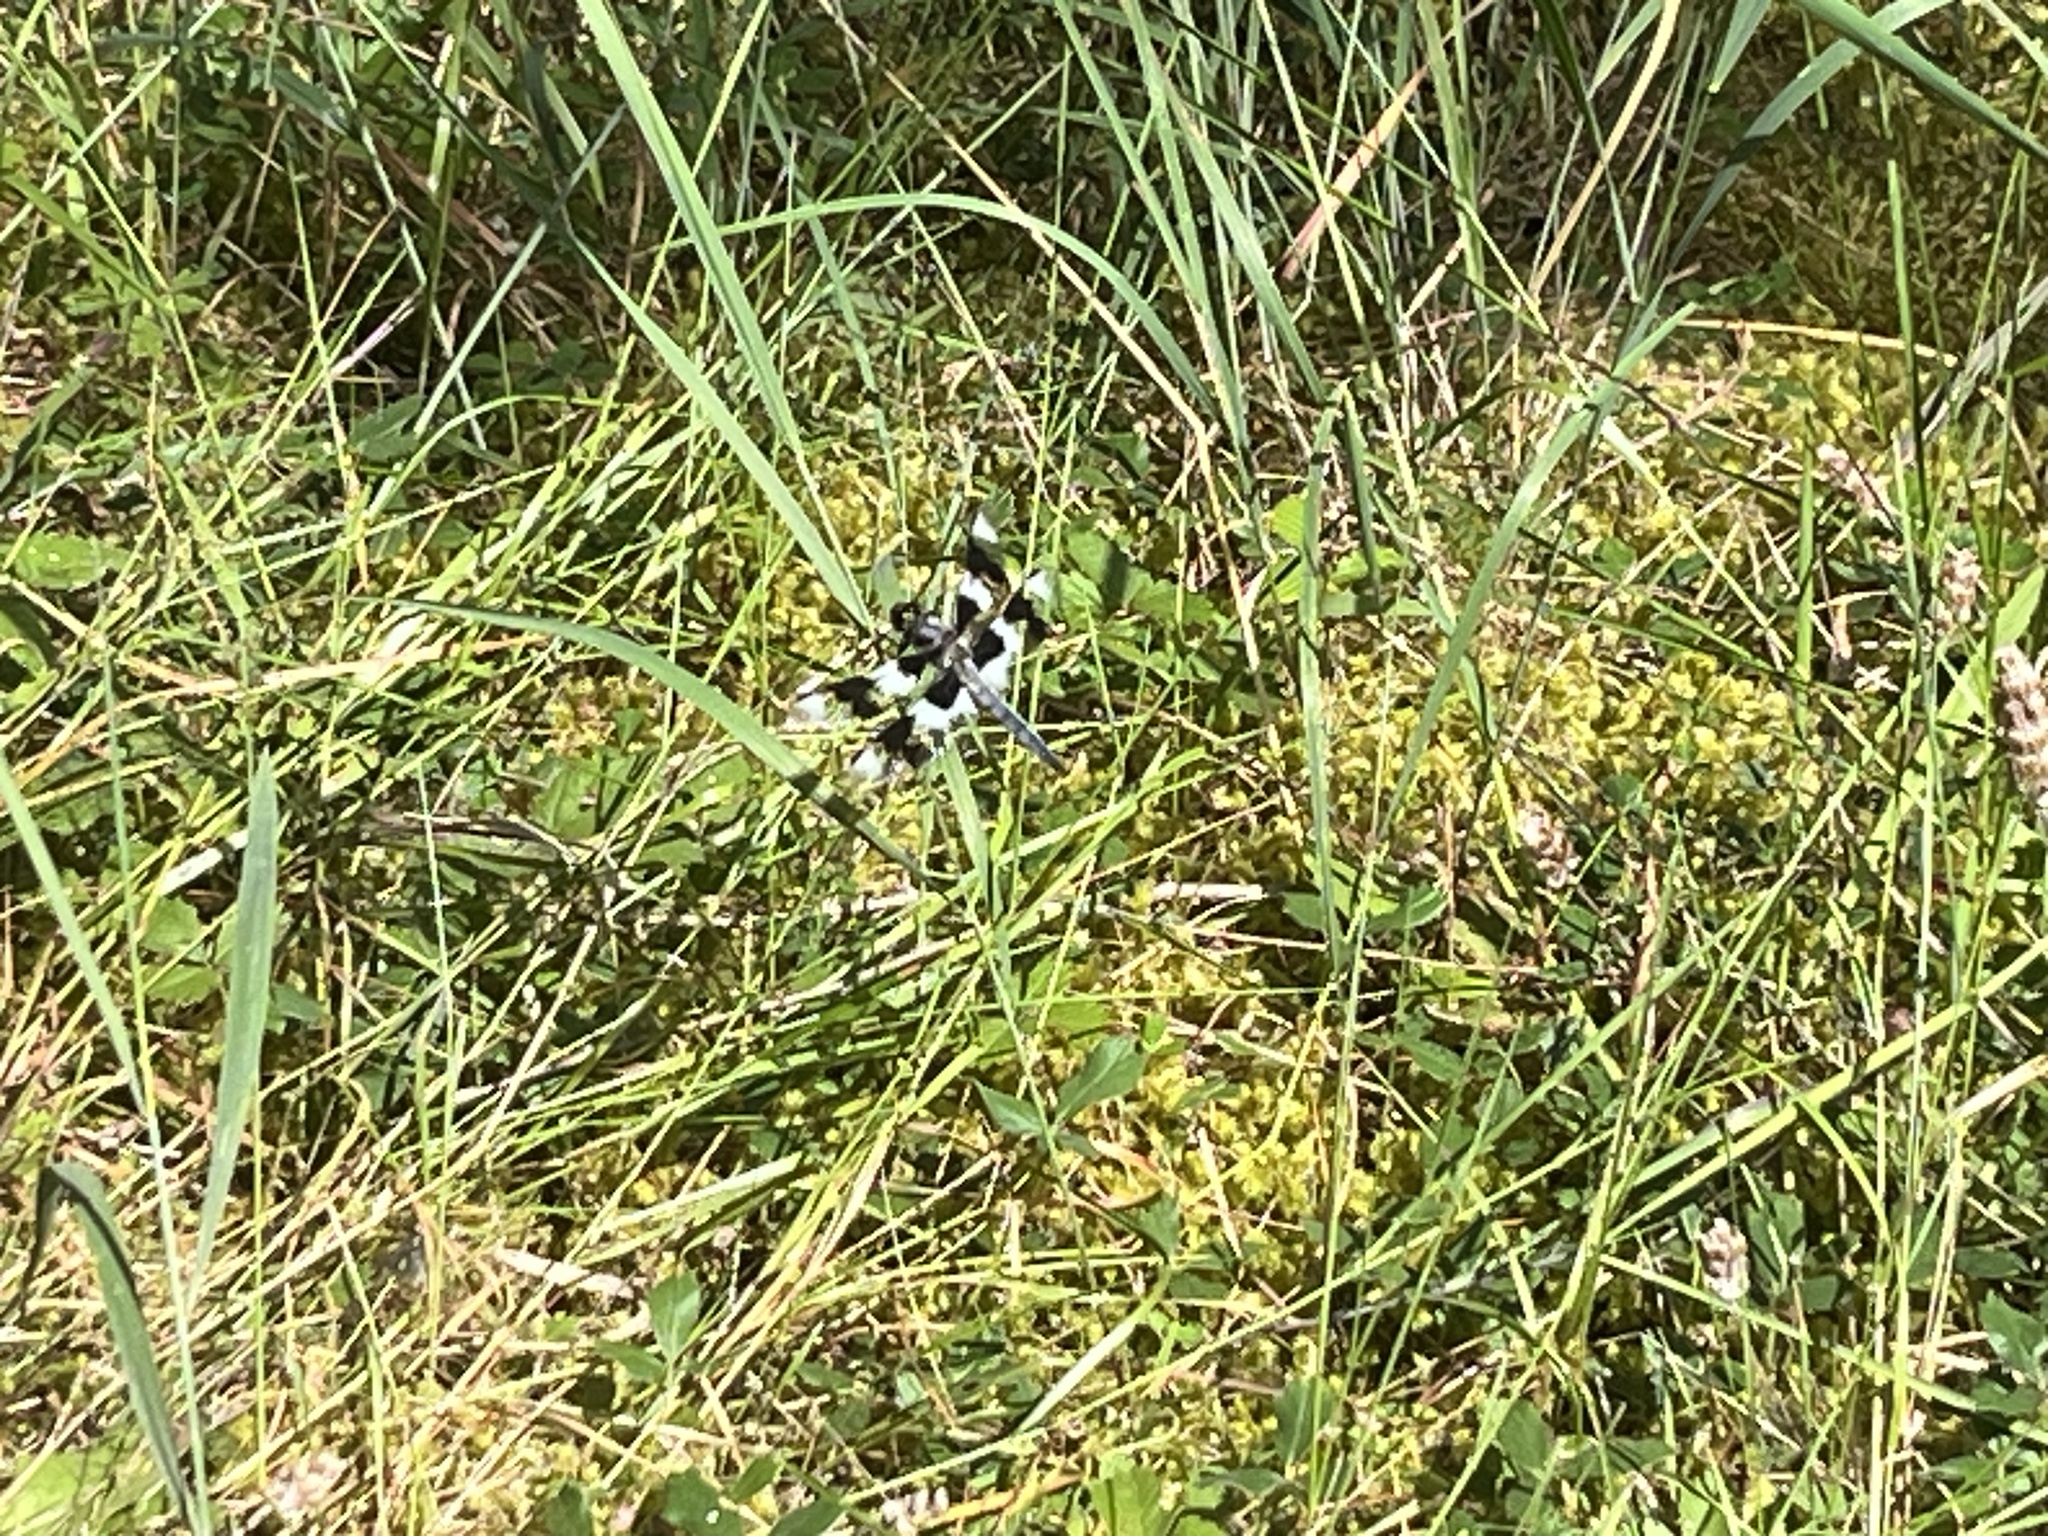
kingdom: Animalia
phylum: Arthropoda
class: Insecta
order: Odonata
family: Libellulidae
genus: Libellula
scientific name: Libellula forensis
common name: Eight-spotted skimmer
